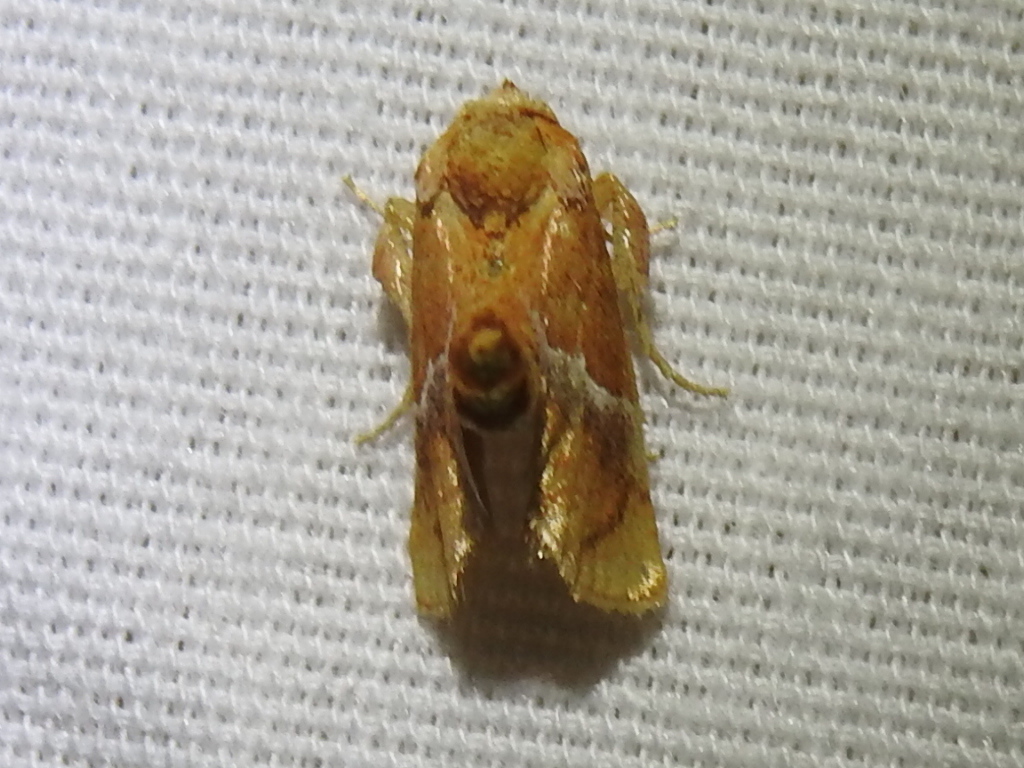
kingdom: Animalia
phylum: Arthropoda
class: Insecta
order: Lepidoptera
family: Limacodidae
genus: Lithacodes
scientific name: Lithacodes fasciola
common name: Yellow-shouldered slug moth
